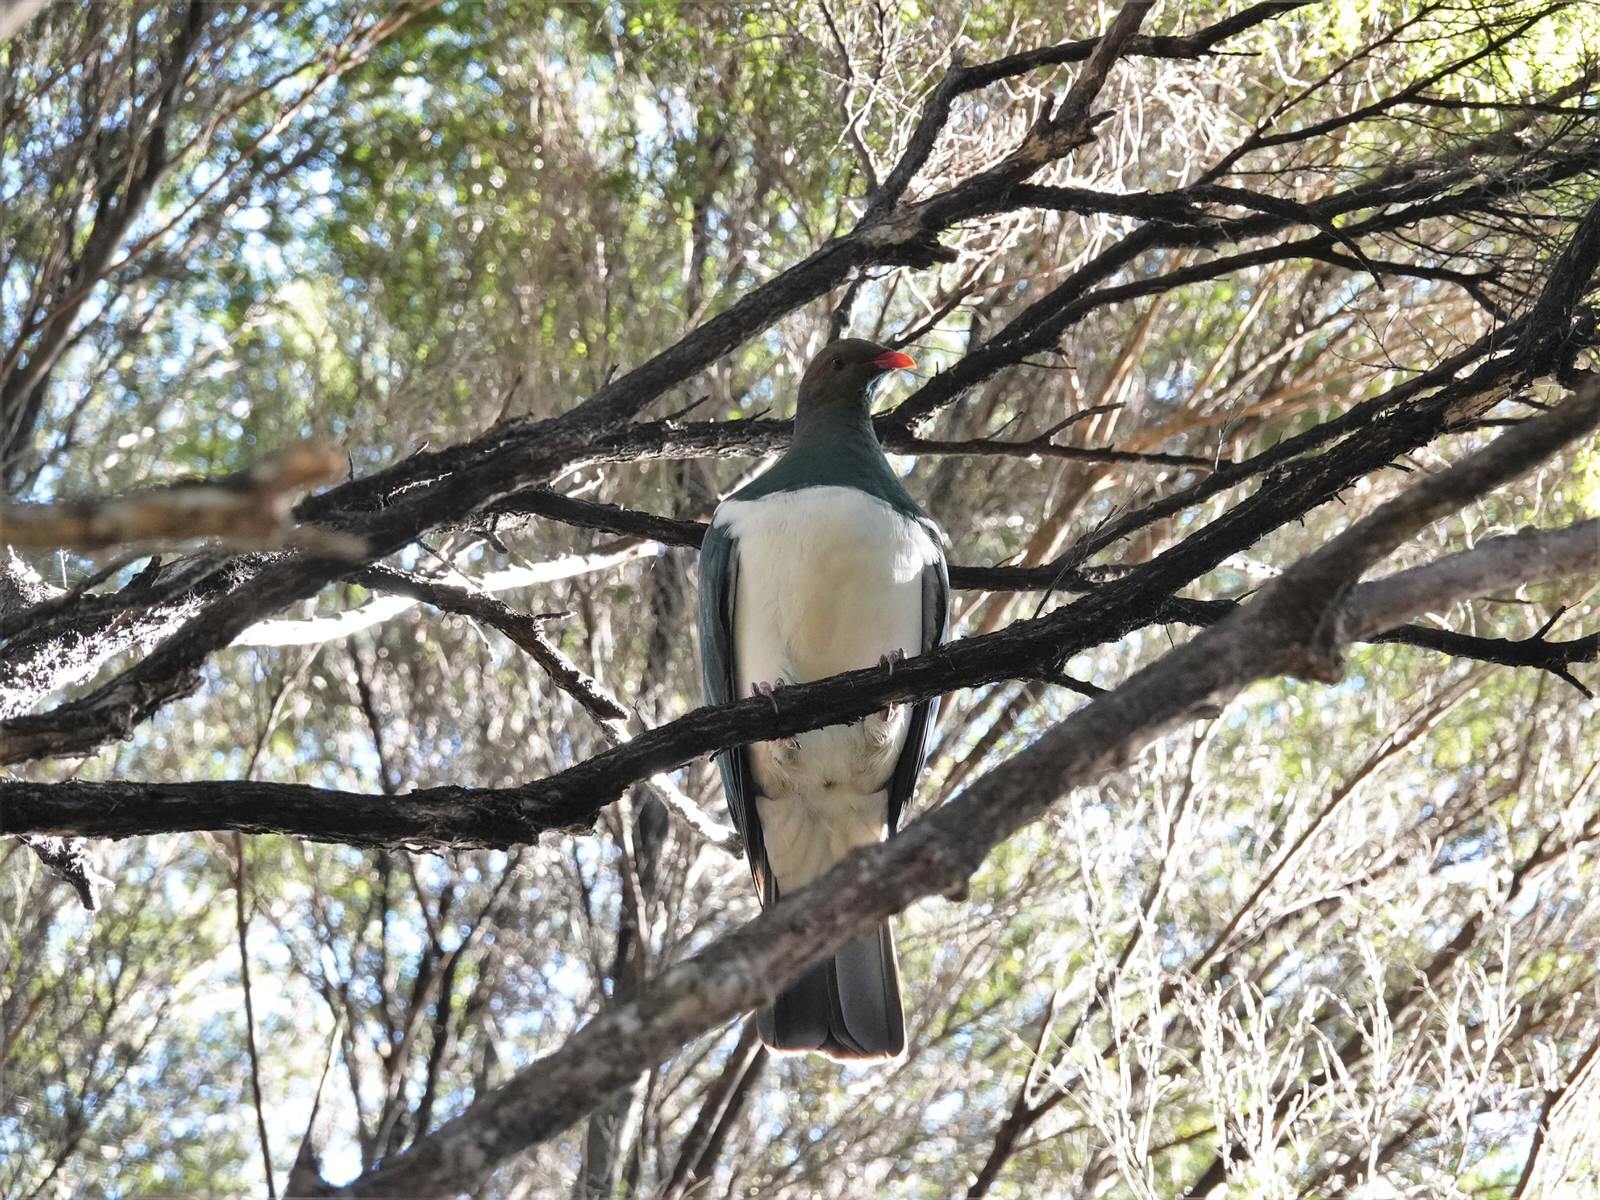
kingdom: Animalia
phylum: Chordata
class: Aves
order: Columbiformes
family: Columbidae
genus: Hemiphaga
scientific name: Hemiphaga novaeseelandiae
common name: New zealand pigeon
